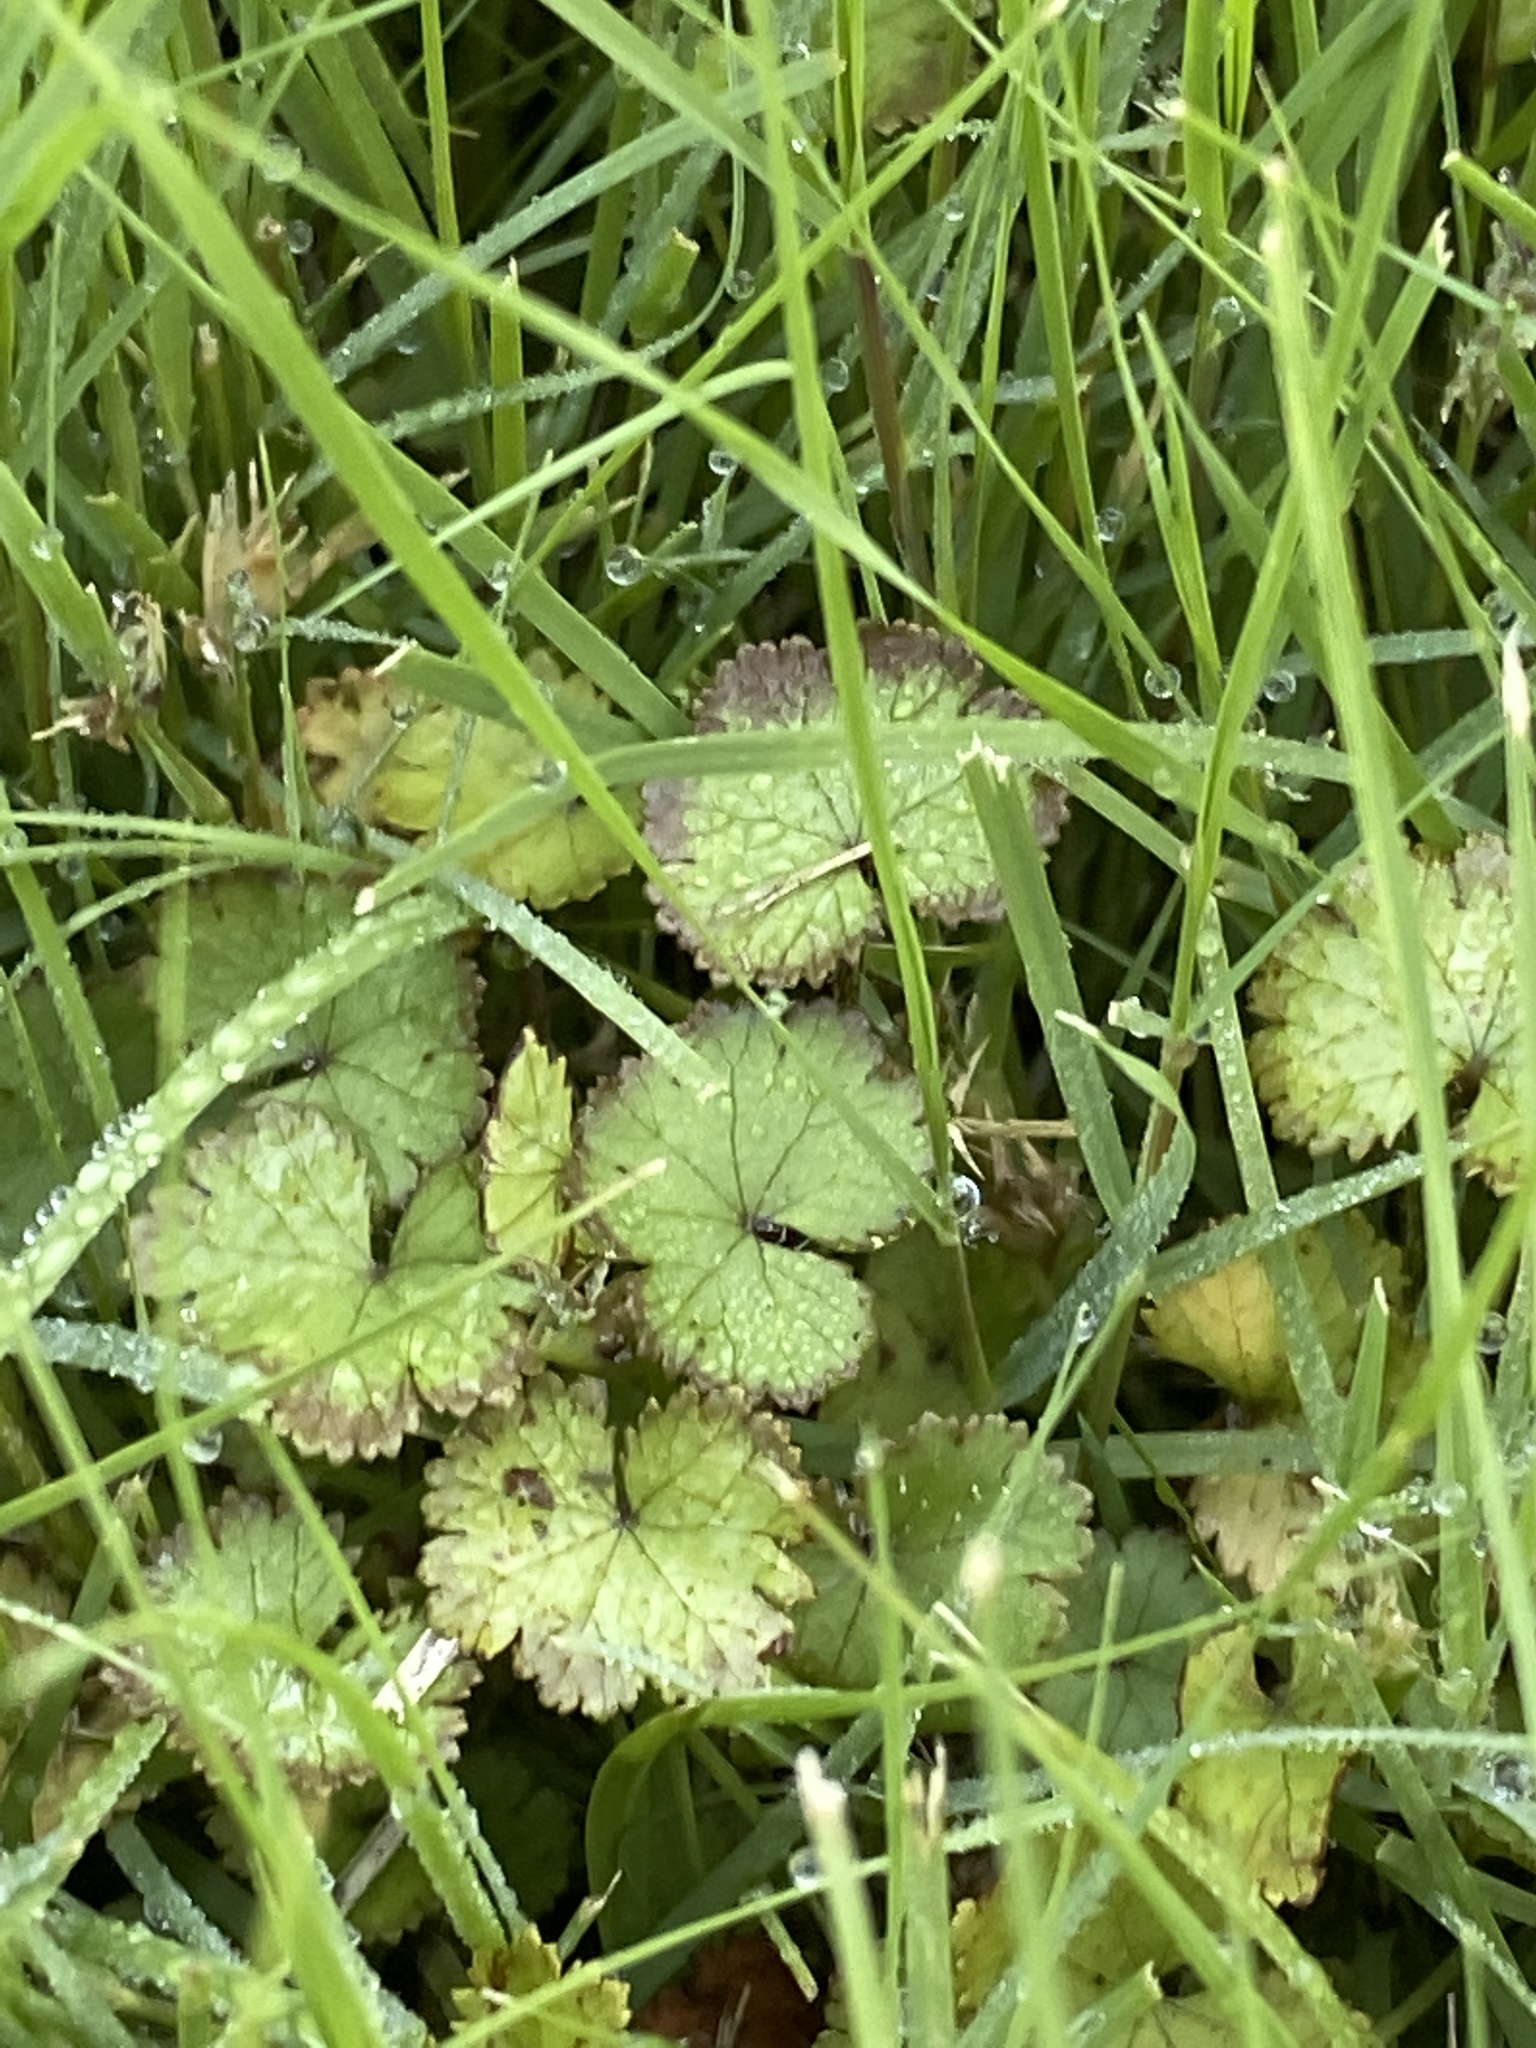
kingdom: Plantae
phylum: Tracheophyta
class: Magnoliopsida
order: Apiales
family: Araliaceae
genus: Hydrocotyle
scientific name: Hydrocotyle moschata
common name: Hairy pennywort
